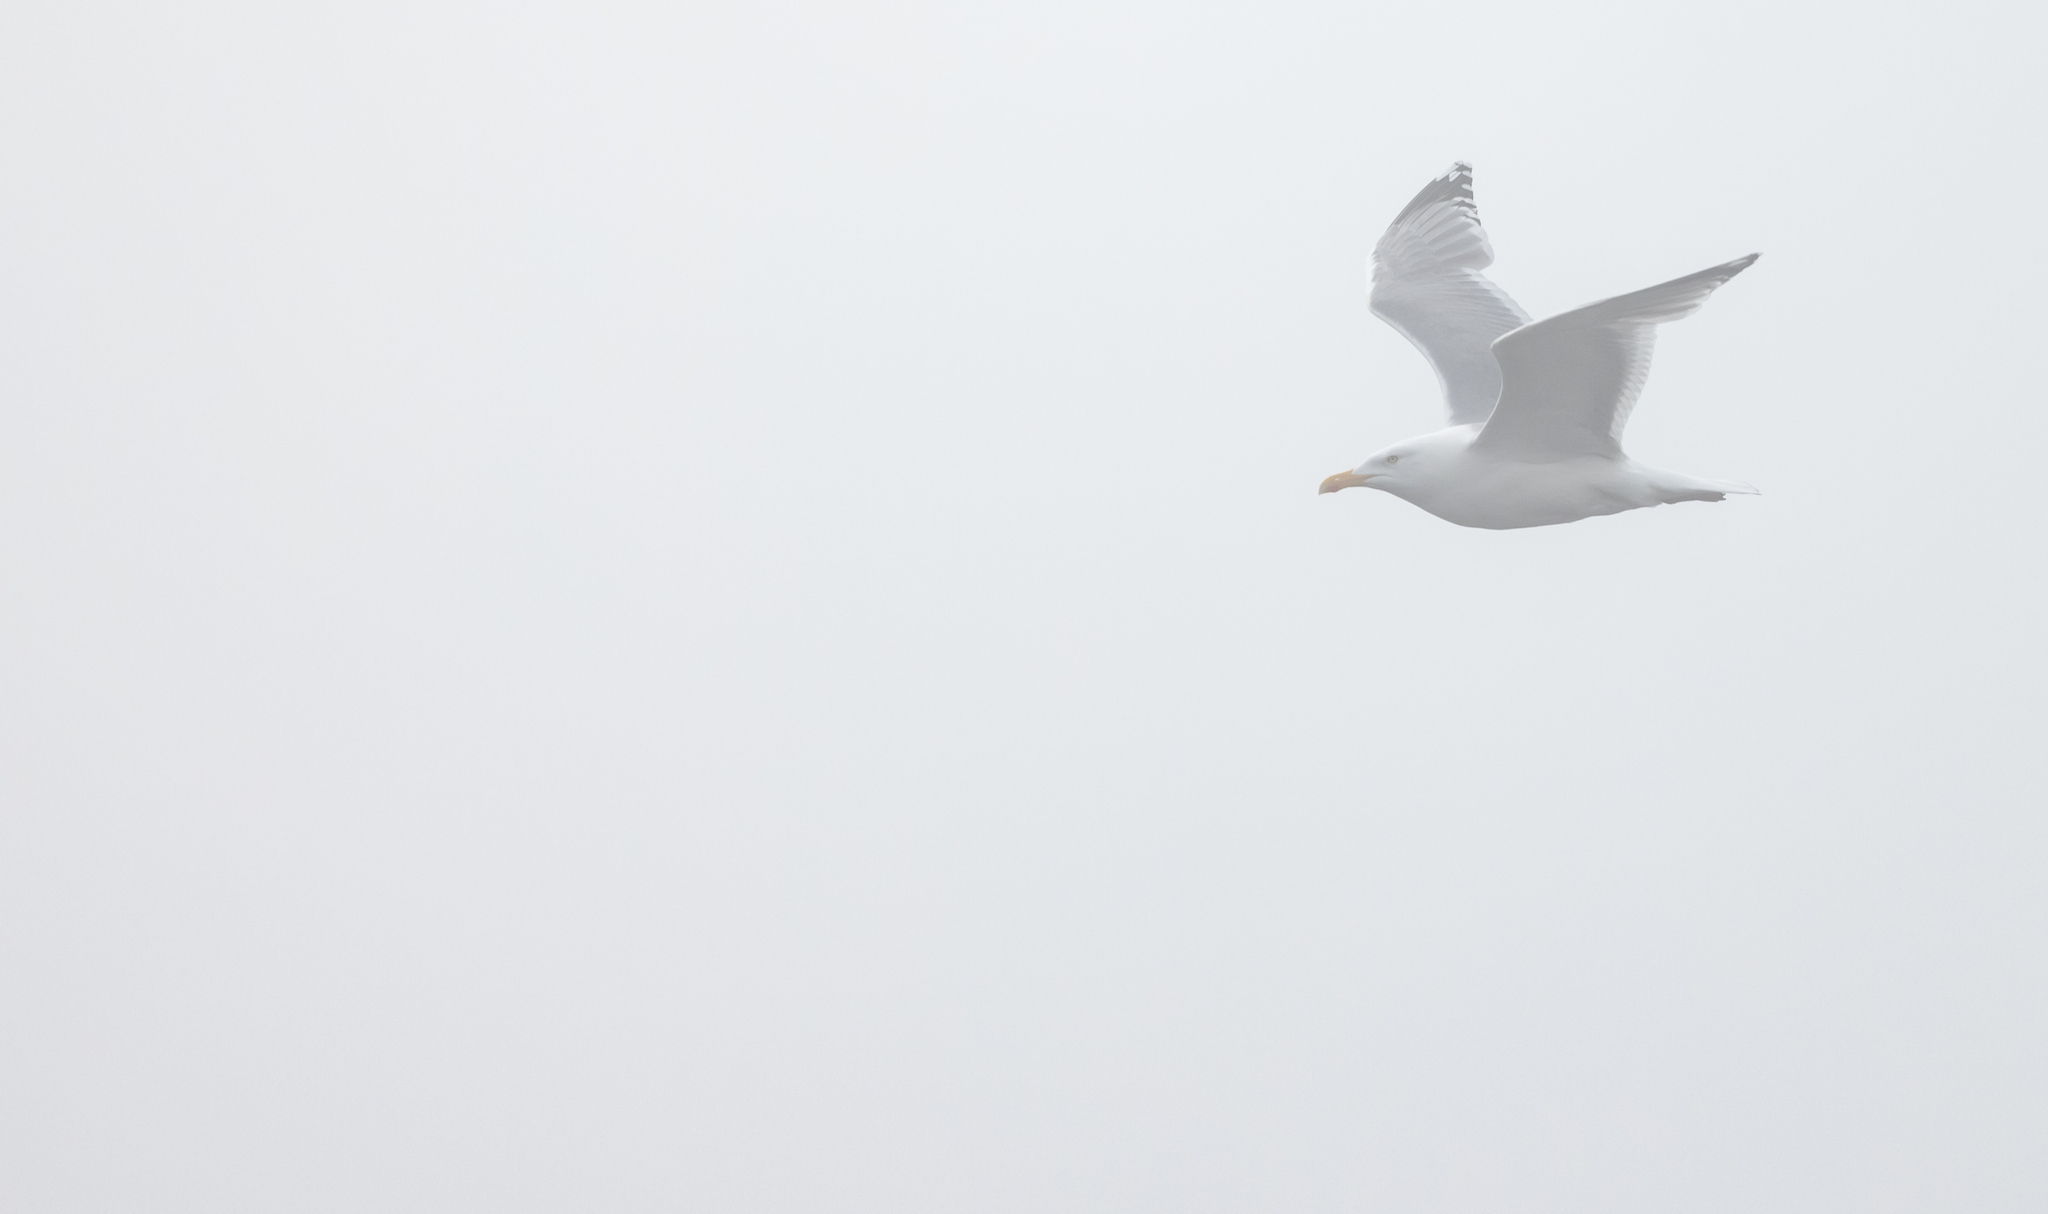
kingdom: Animalia
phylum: Chordata
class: Aves
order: Charadriiformes
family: Laridae
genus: Larus
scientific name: Larus argentatus
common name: Herring gull
